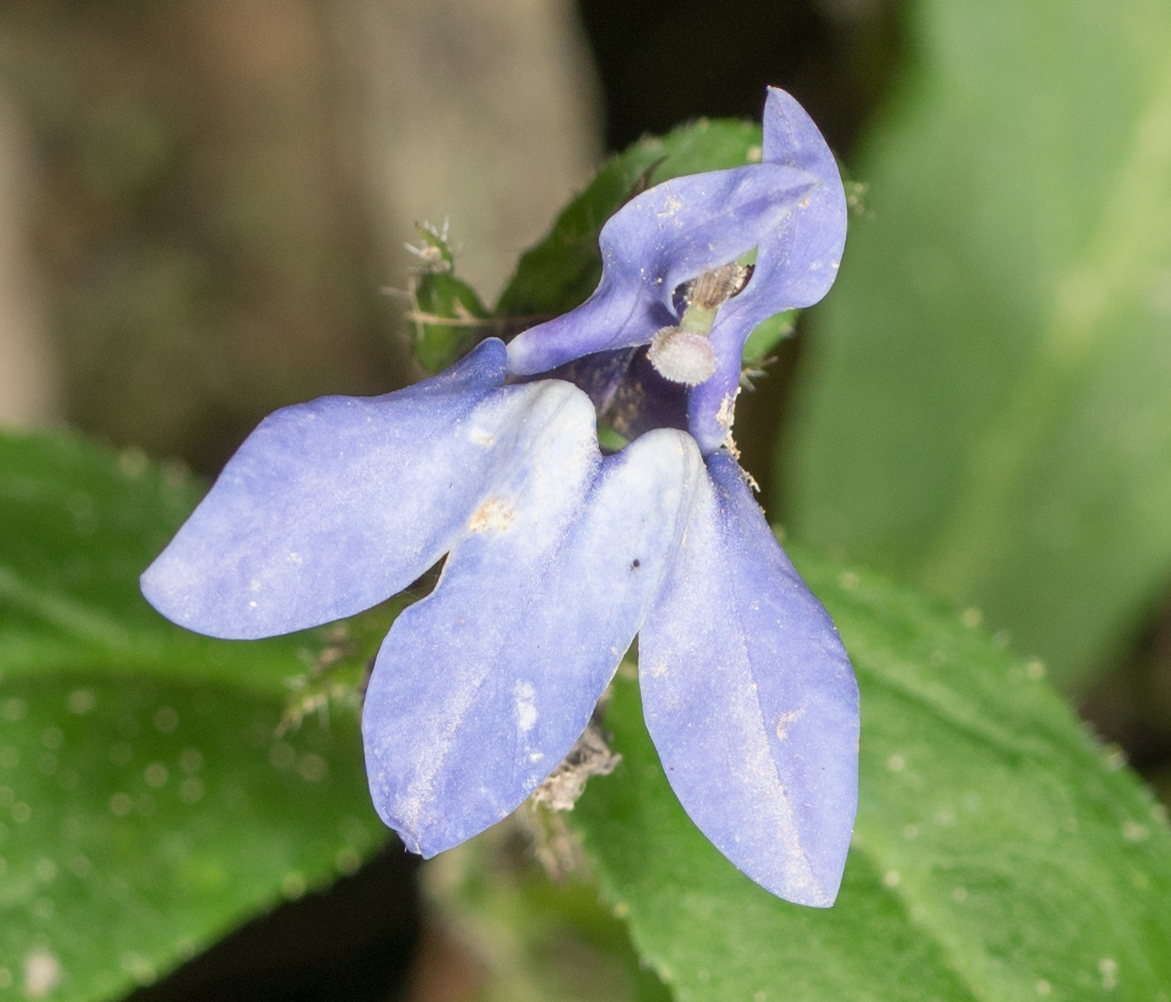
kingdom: Plantae
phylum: Tracheophyta
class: Magnoliopsida
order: Asterales
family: Campanulaceae
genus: Lobelia
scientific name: Lobelia siphilitica
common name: Great lobelia
